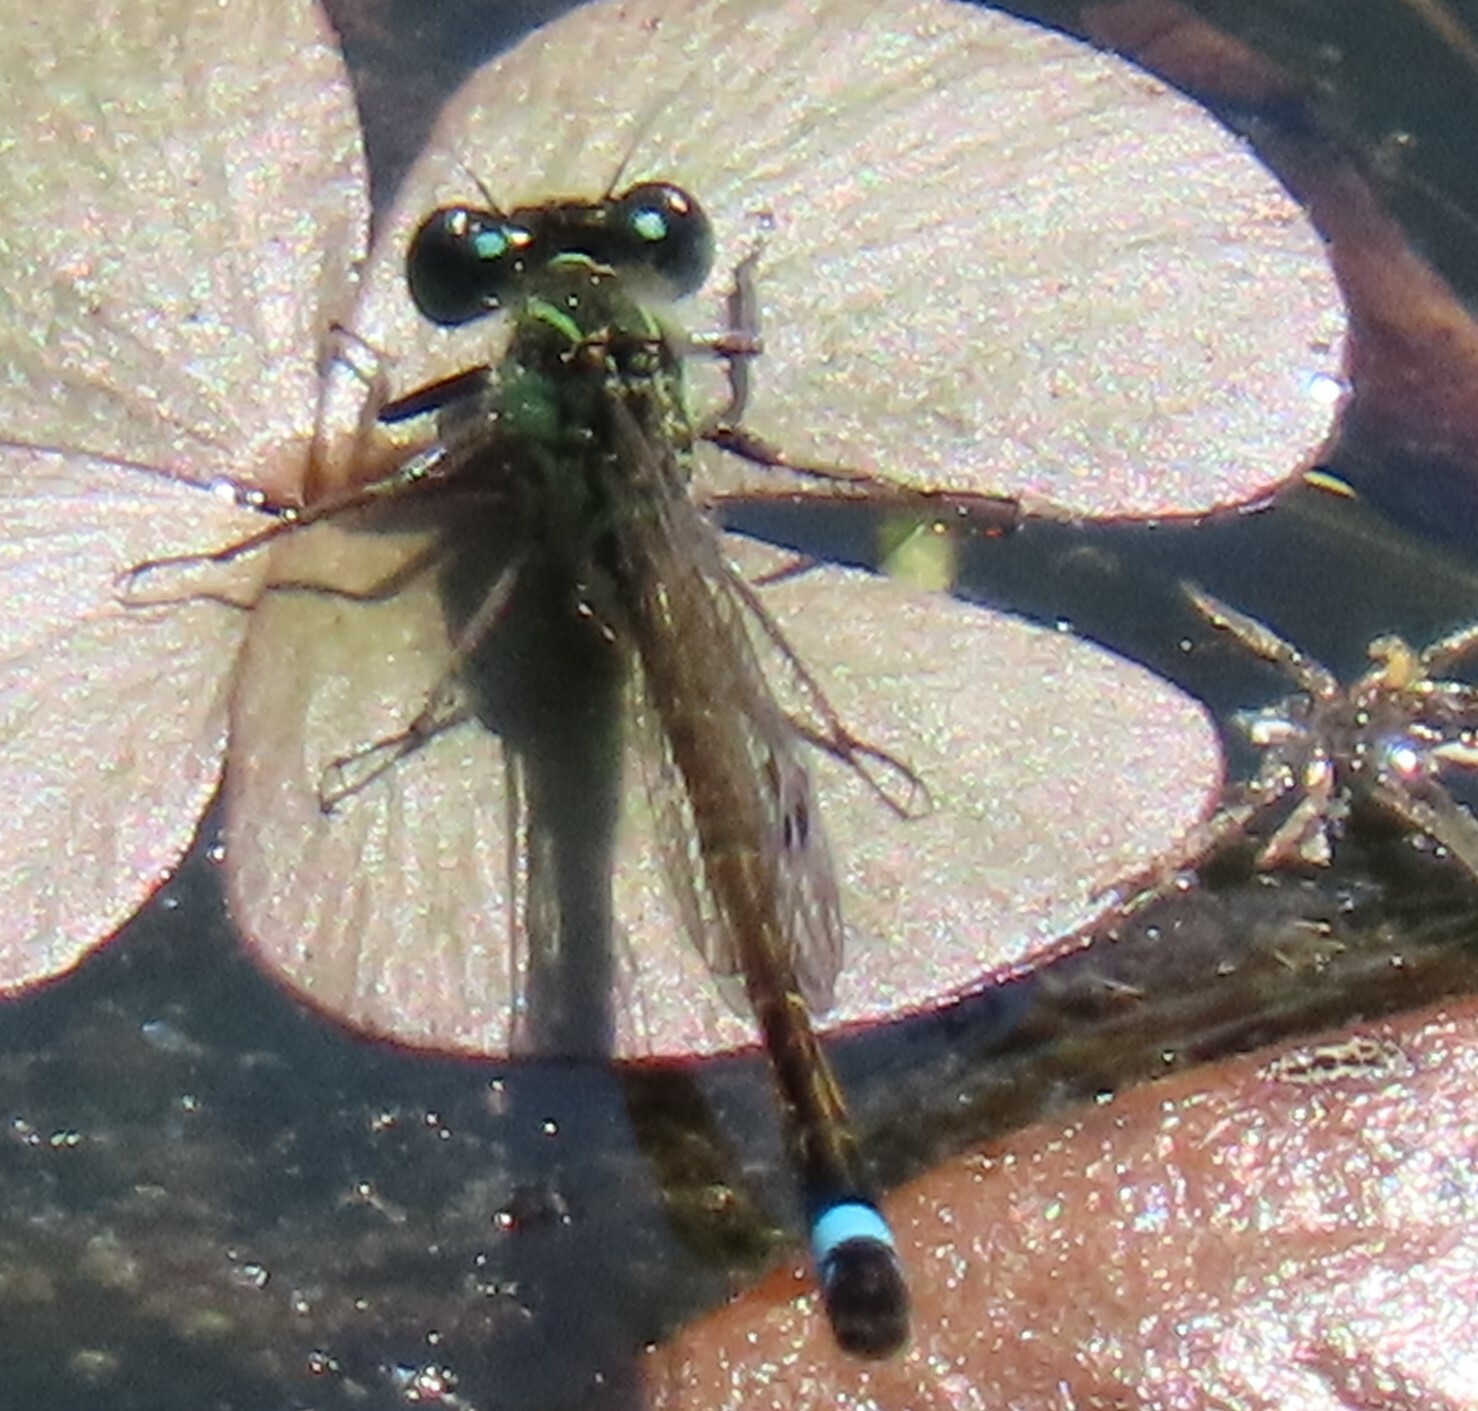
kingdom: Animalia
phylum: Arthropoda
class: Insecta
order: Odonata
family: Coenagrionidae
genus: Ischnura
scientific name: Ischnura ramburii
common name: Rambur's forktail
